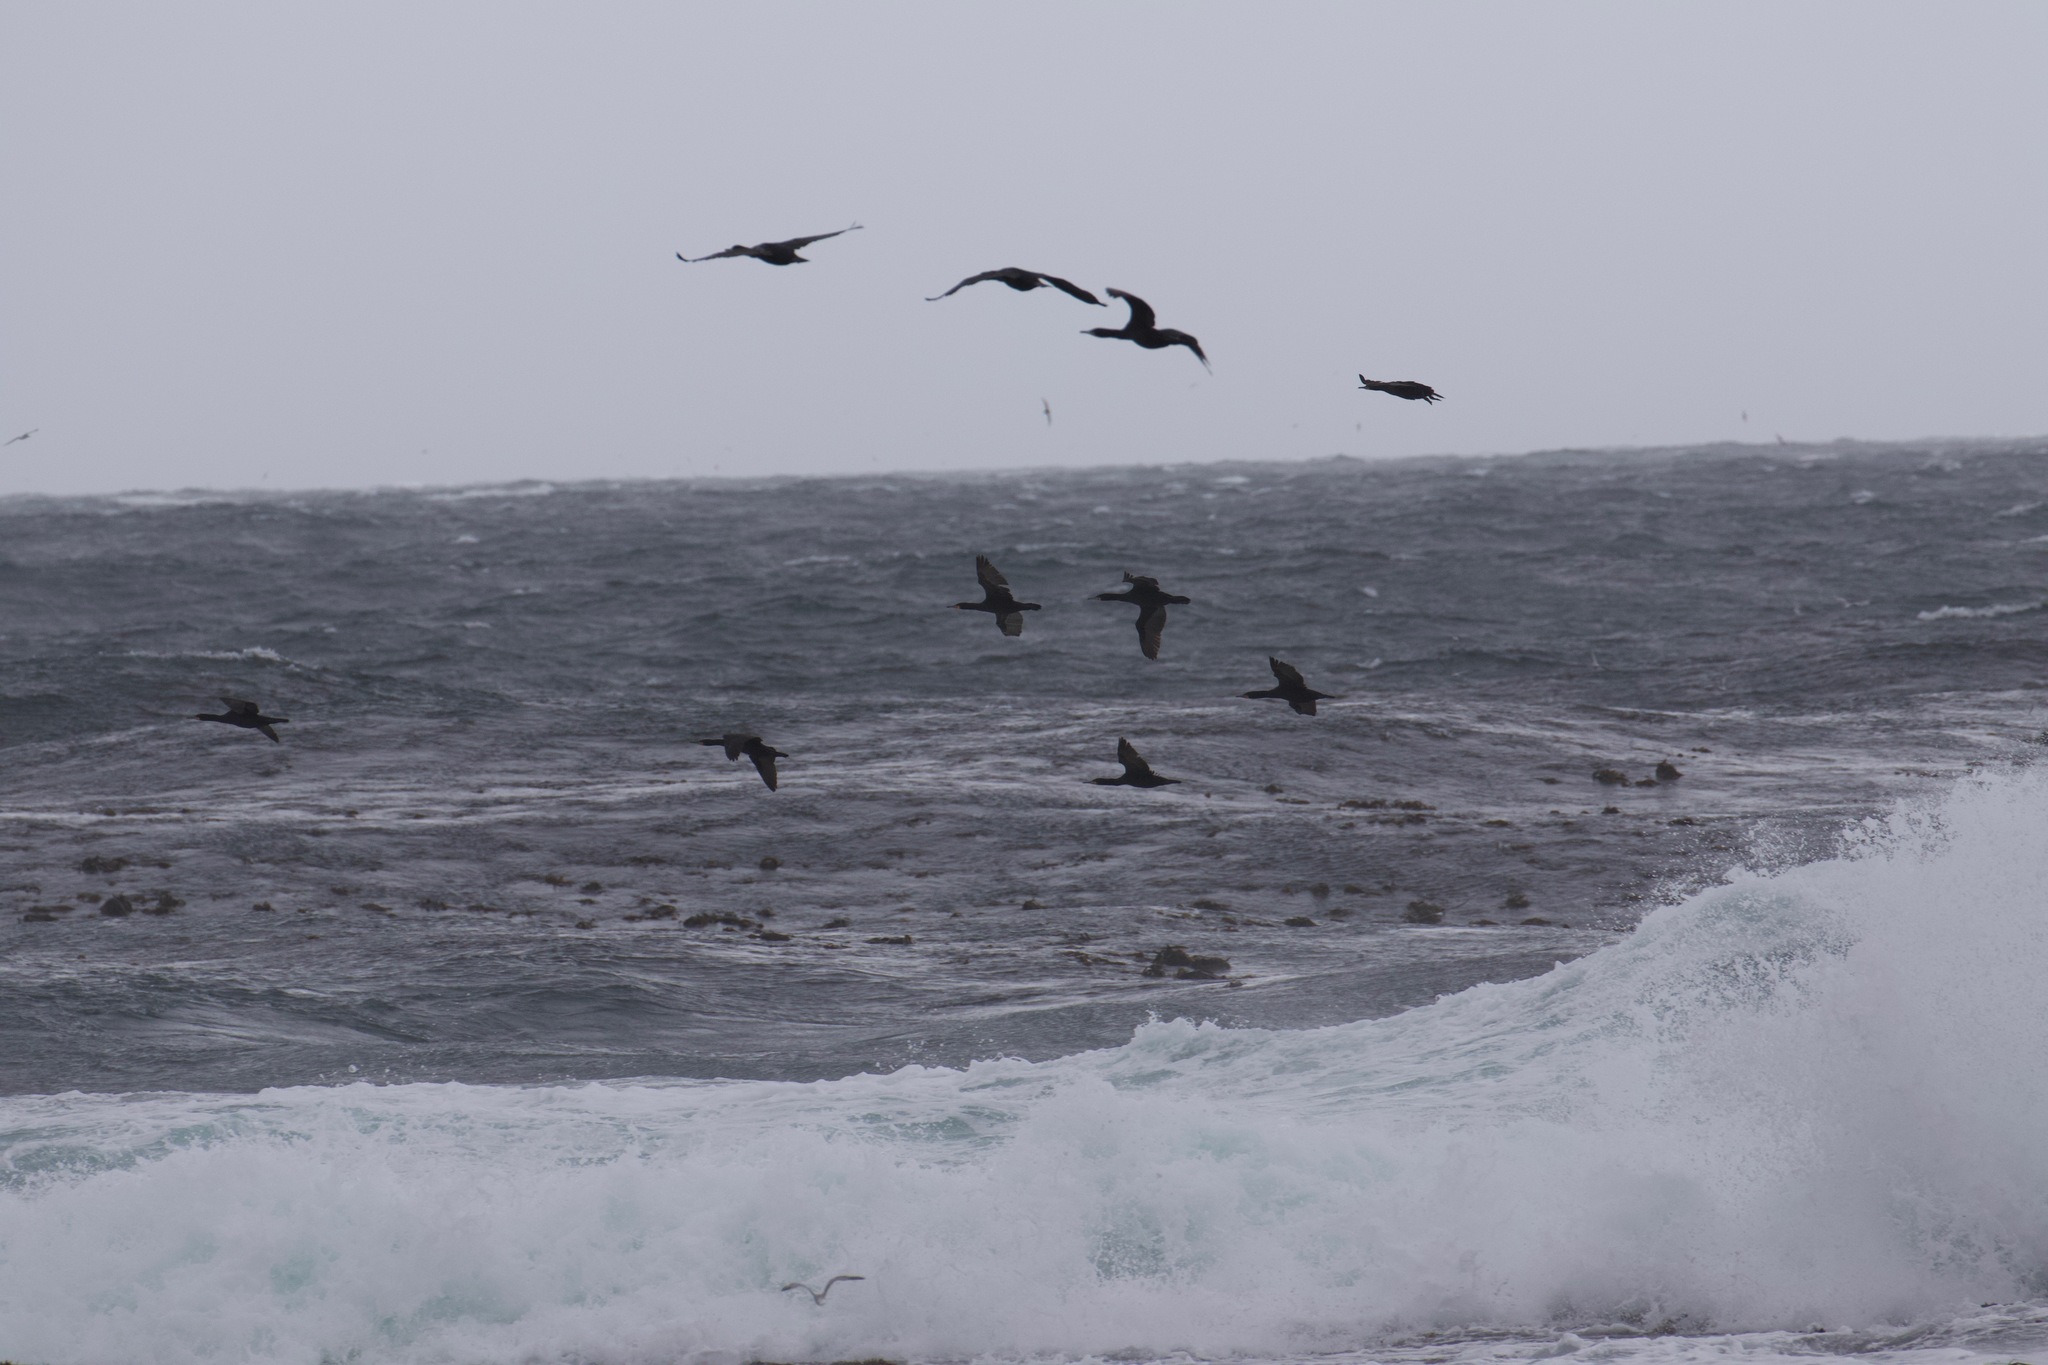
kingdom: Animalia
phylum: Chordata
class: Aves
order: Suliformes
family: Phalacrocoracidae
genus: Phalacrocorax
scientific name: Phalacrocorax capensis
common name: Cape cormorant
